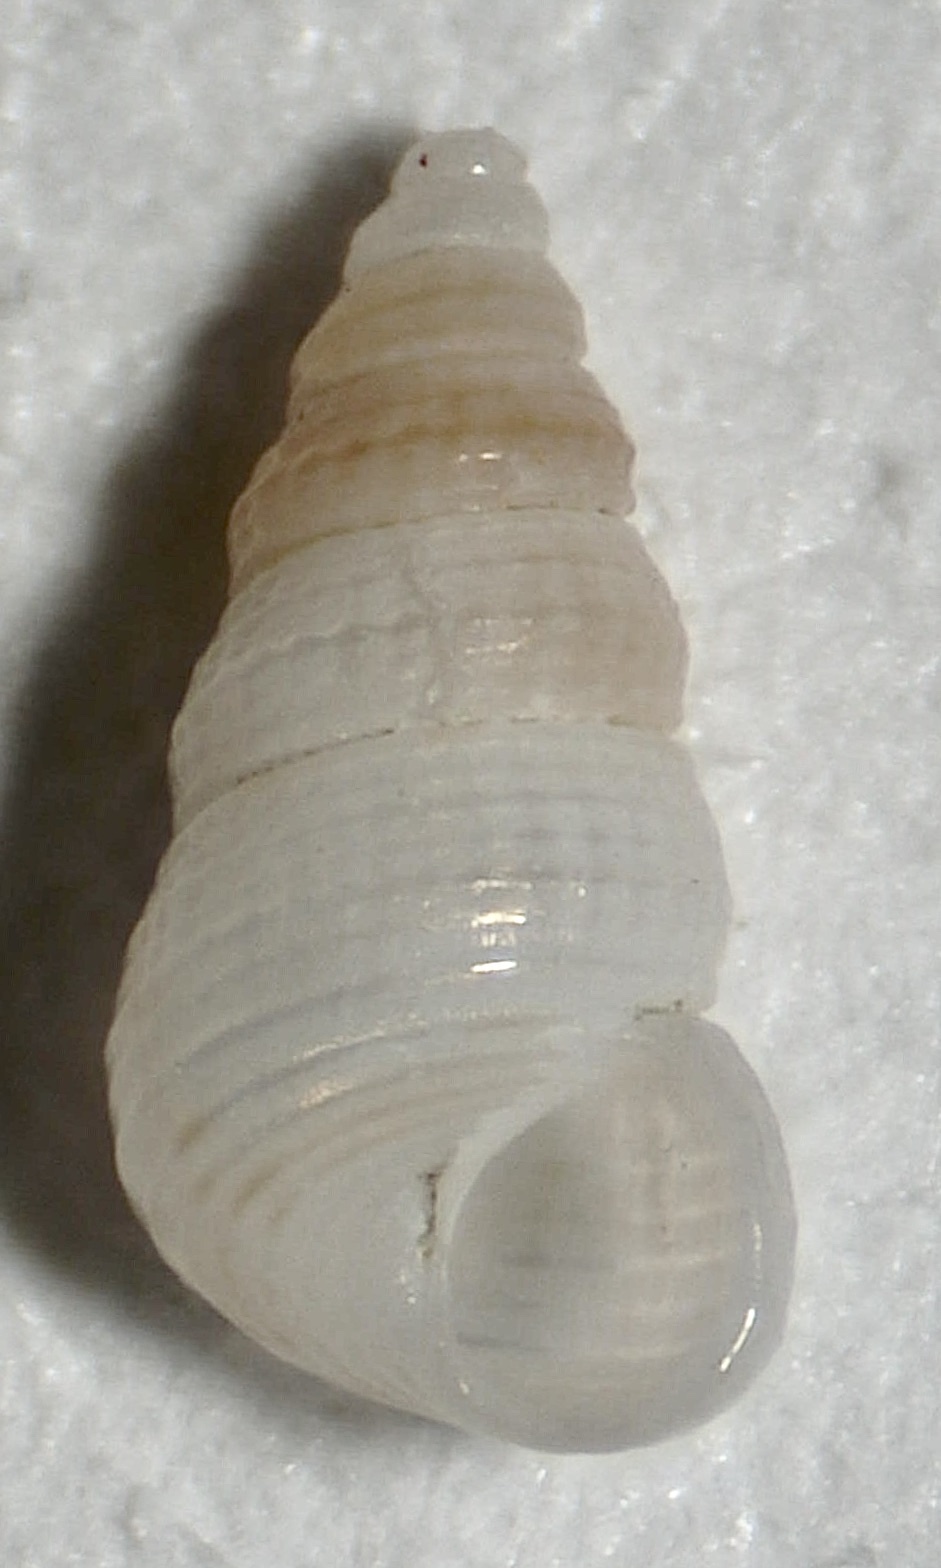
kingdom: Animalia
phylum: Mollusca
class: Gastropoda
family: Scaliolidae
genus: Finella
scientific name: Finella dubia
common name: Dubious finella
